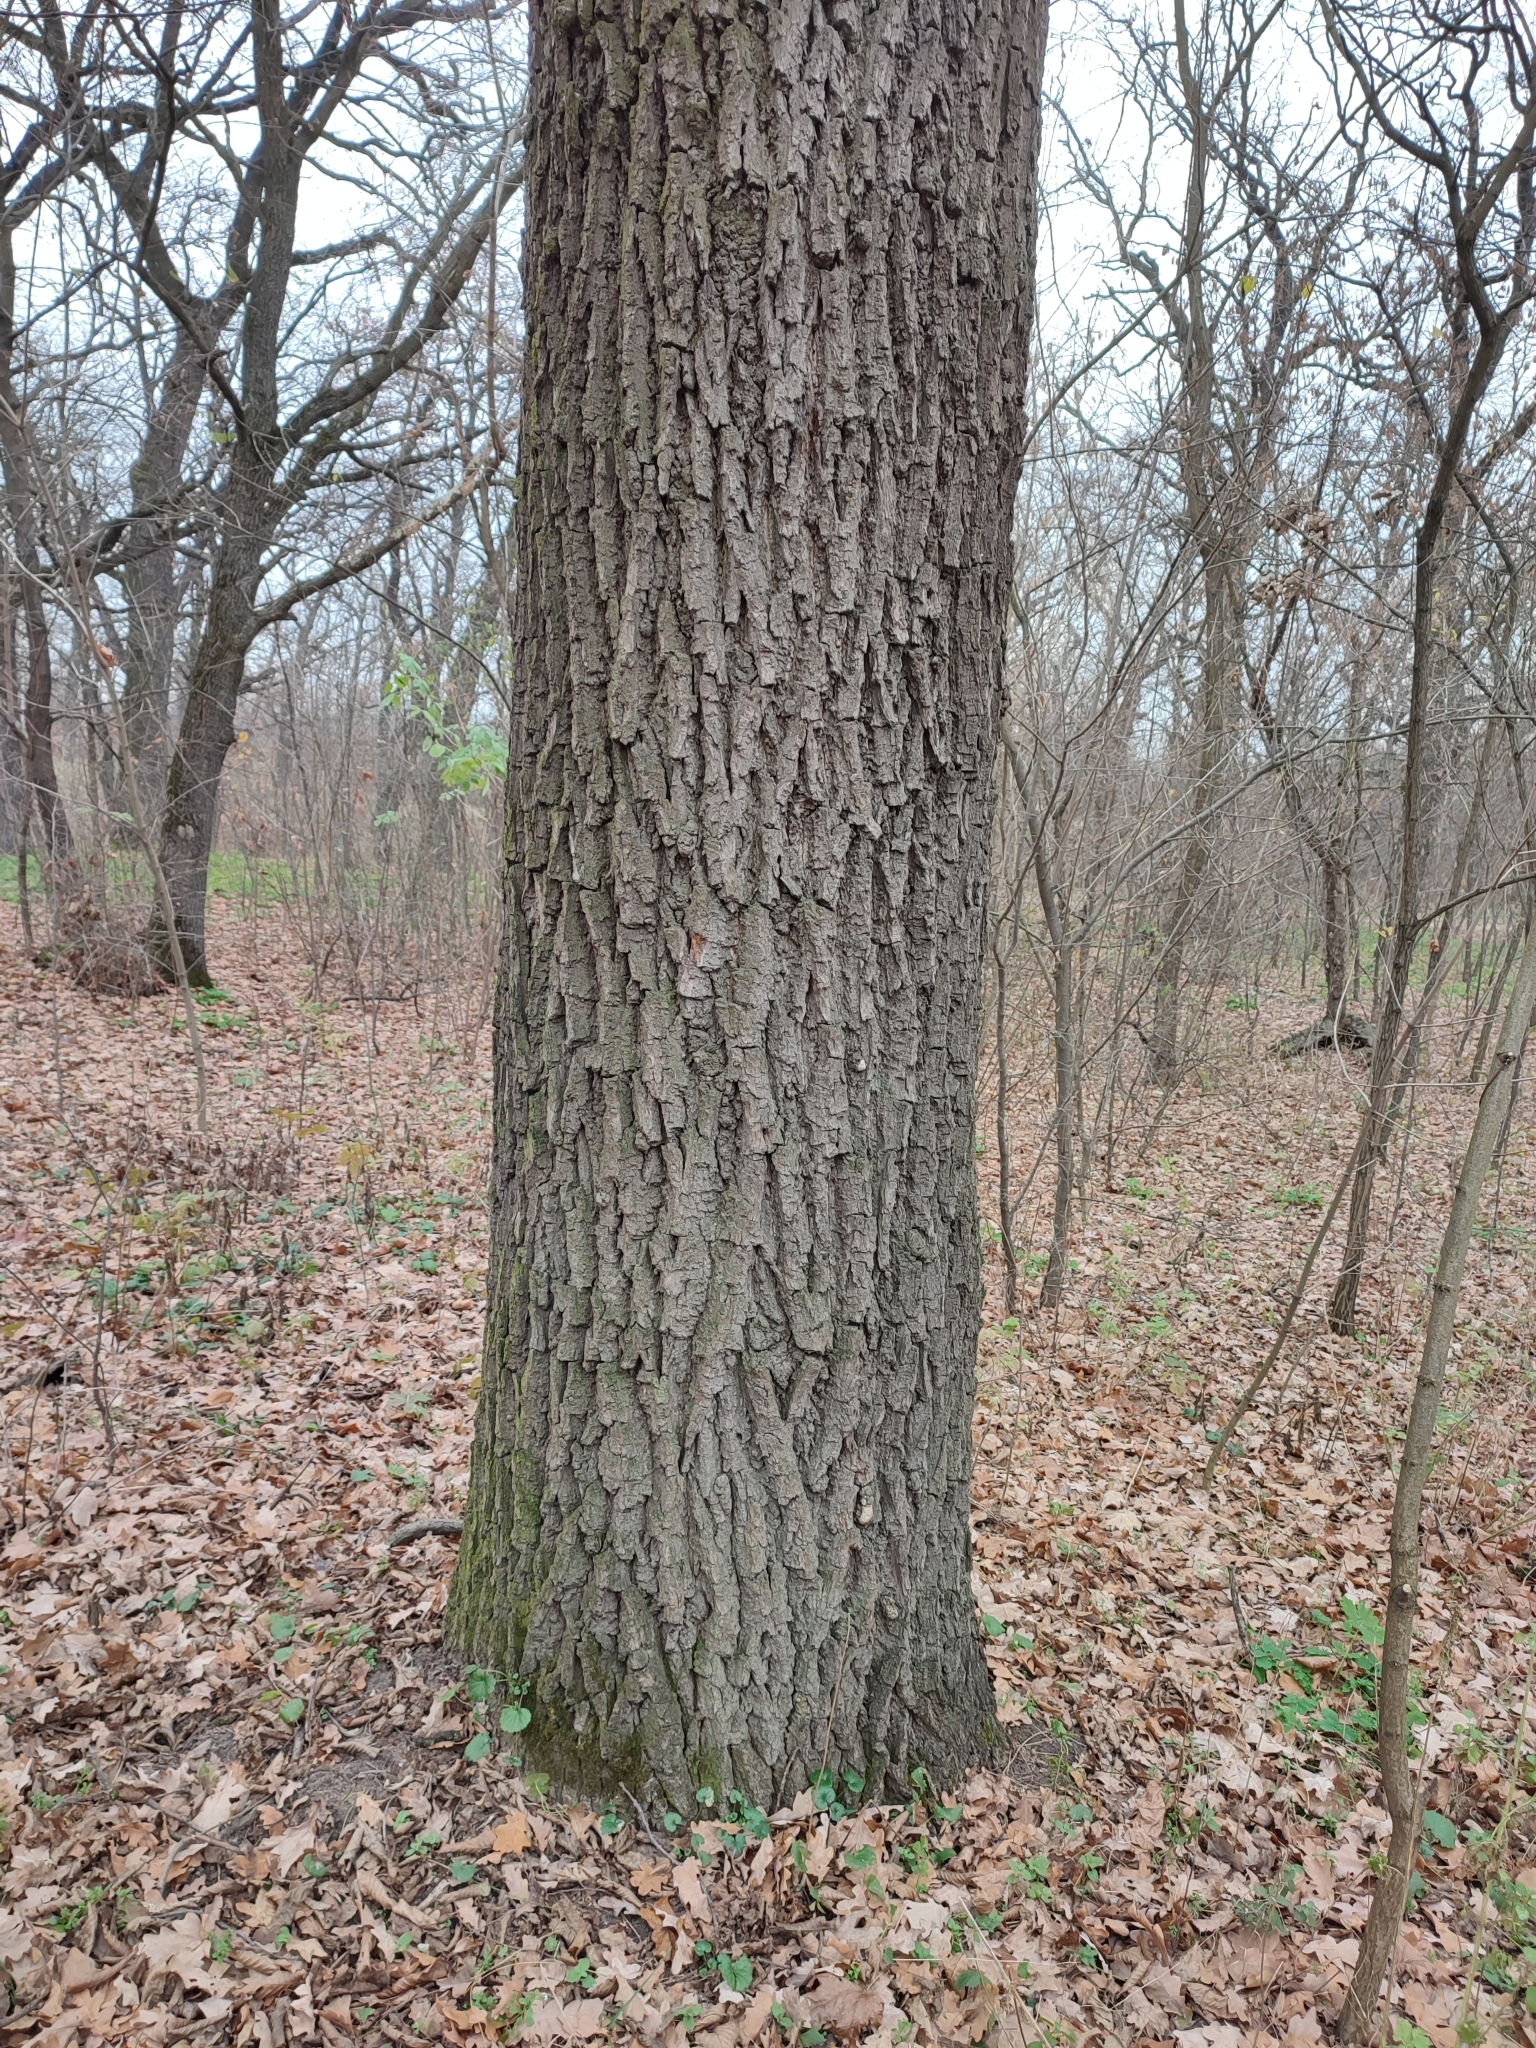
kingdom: Plantae
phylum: Tracheophyta
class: Magnoliopsida
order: Fagales
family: Fagaceae
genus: Quercus
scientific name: Quercus robur
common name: Pedunculate oak
